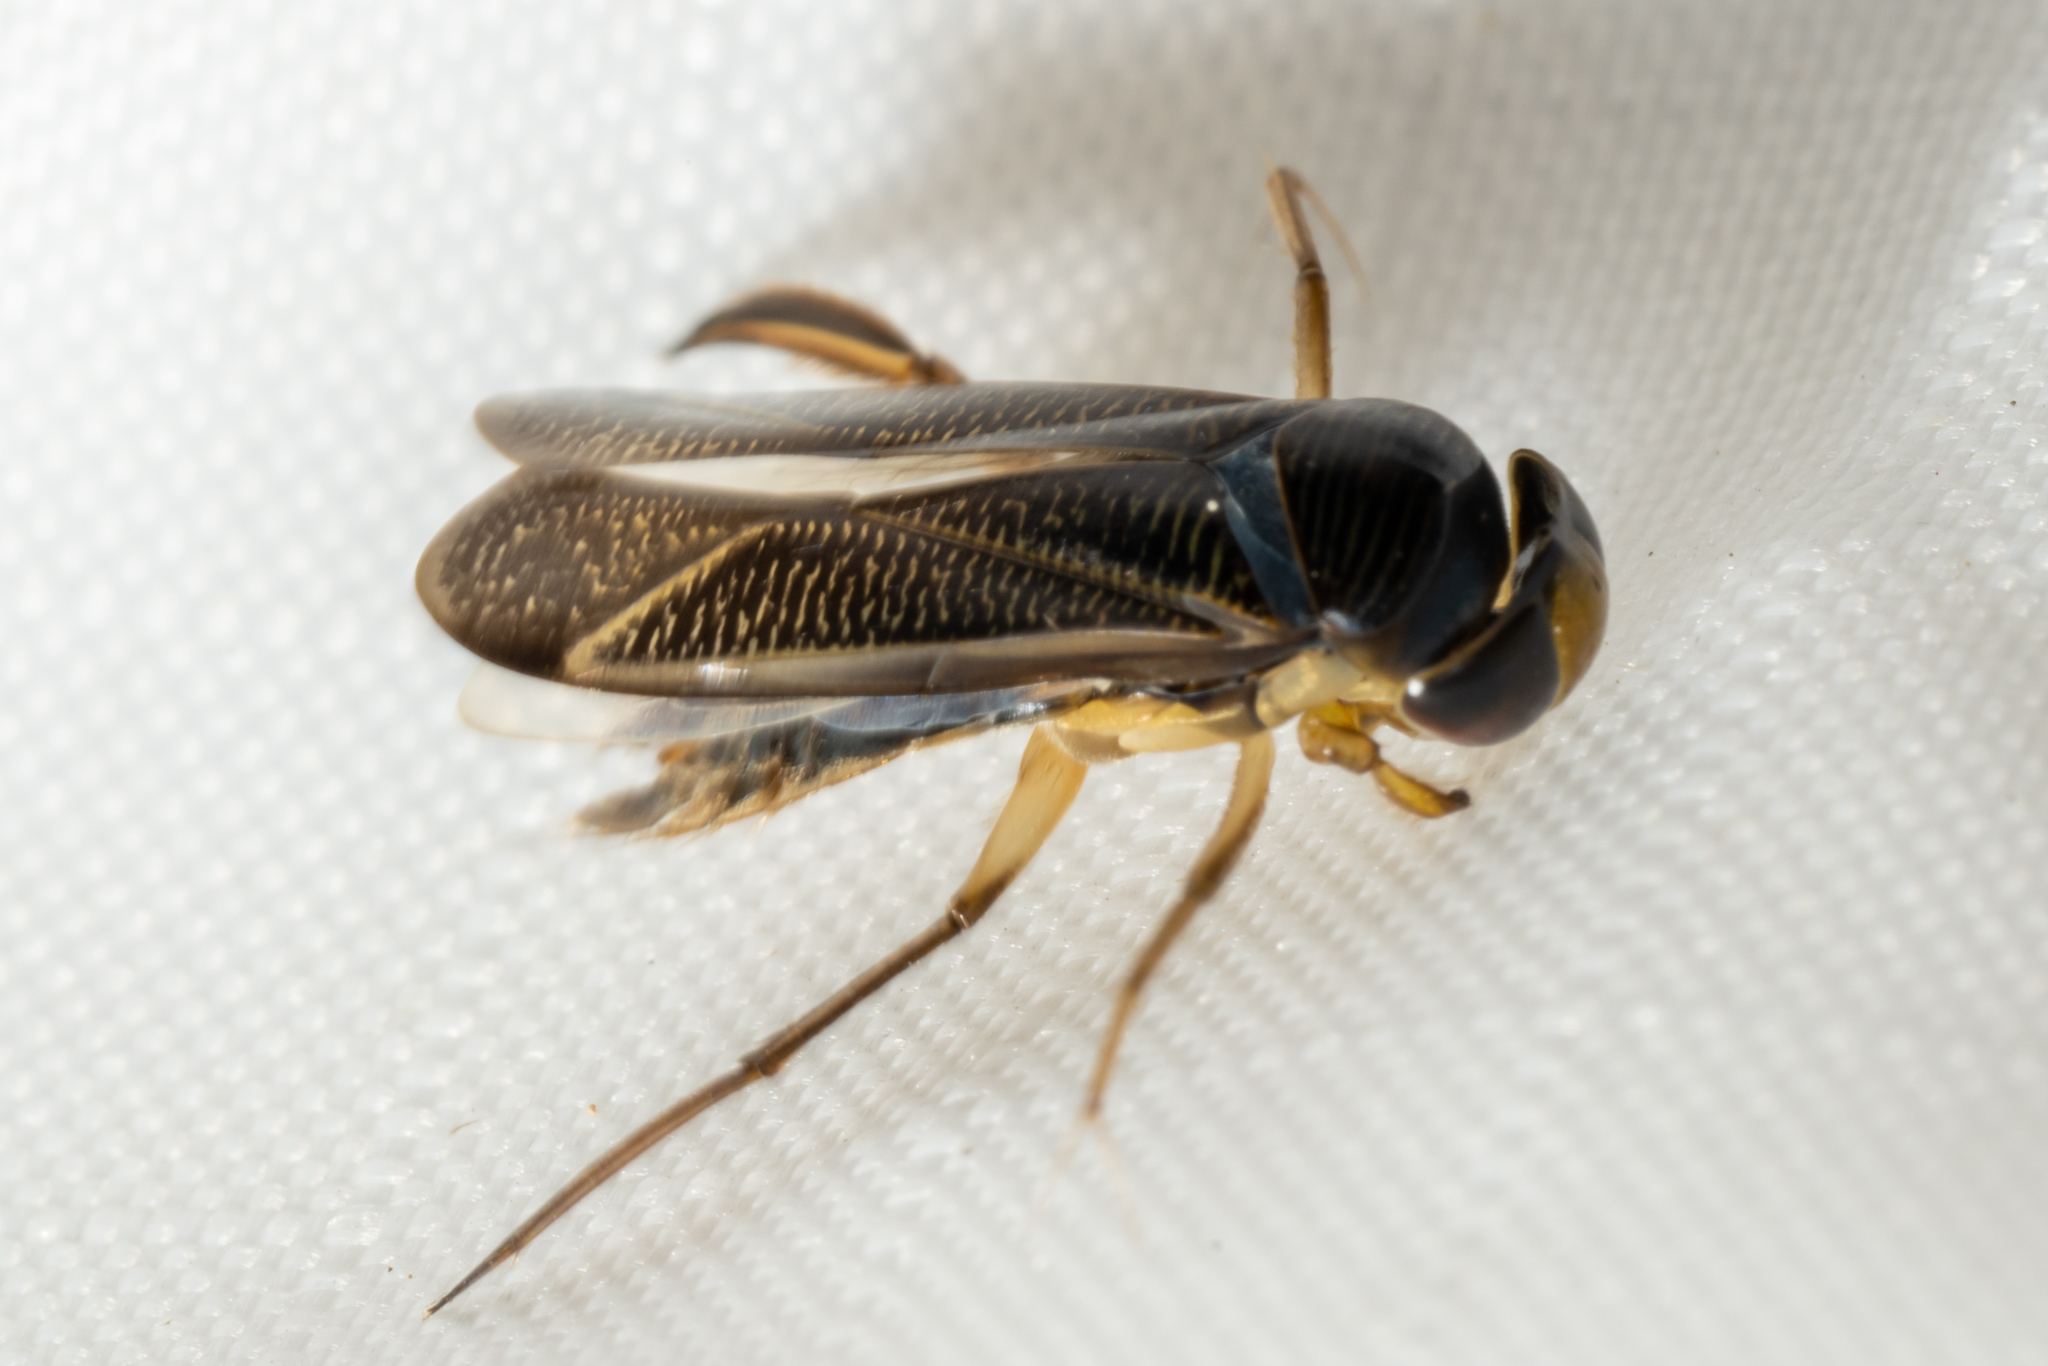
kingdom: Animalia
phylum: Arthropoda
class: Insecta
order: Hemiptera
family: Corixidae
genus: Hesperocorixa
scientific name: Hesperocorixa
